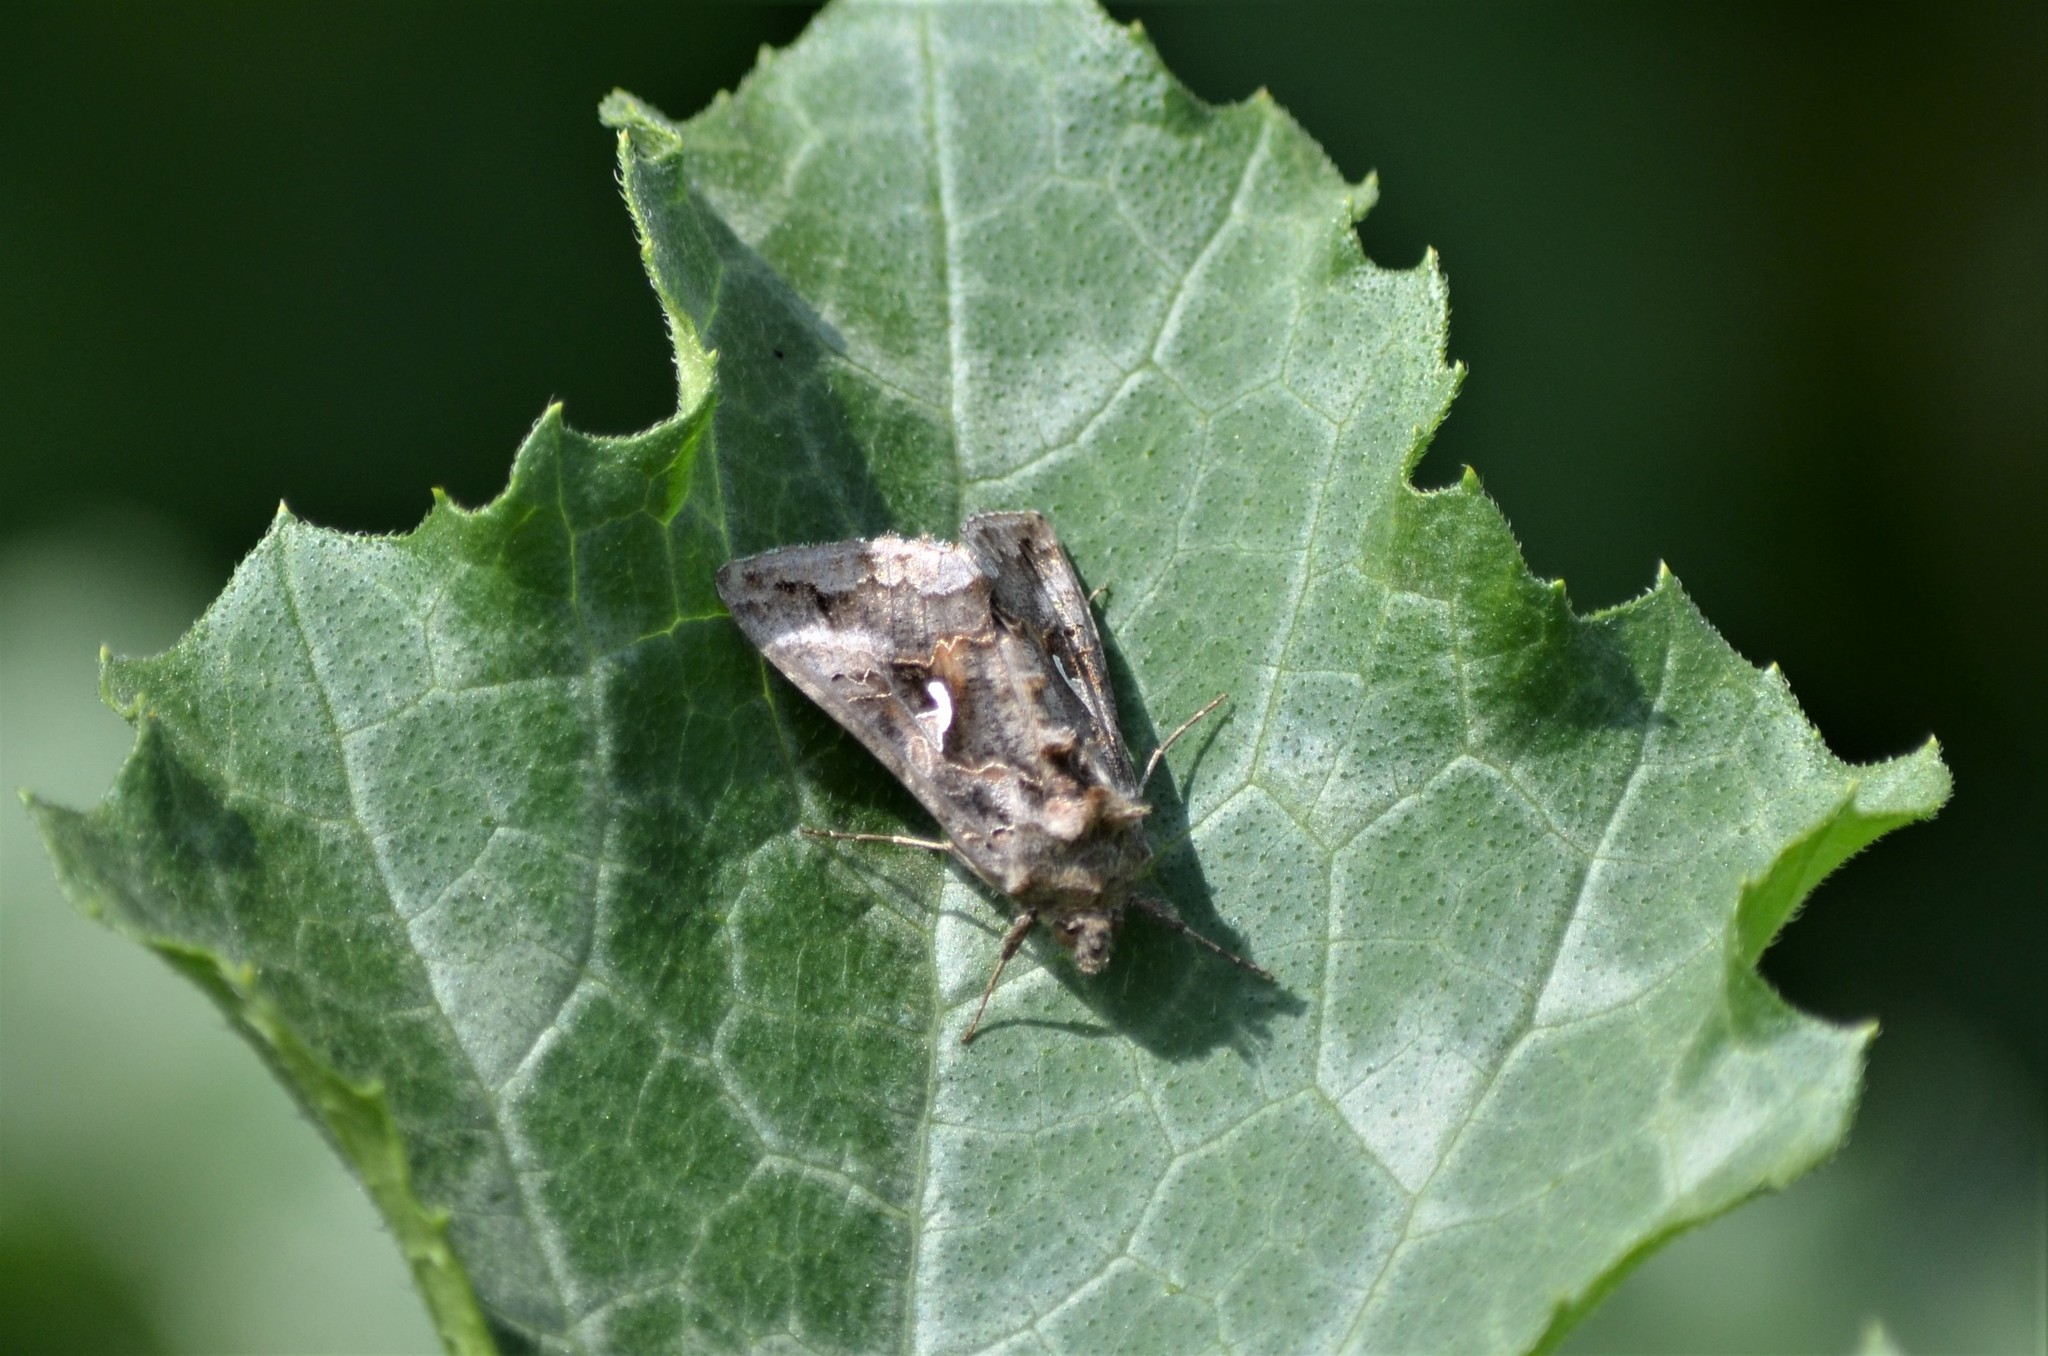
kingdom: Animalia
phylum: Arthropoda
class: Insecta
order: Lepidoptera
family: Noctuidae
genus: Autographa
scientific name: Autographa gamma
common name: Silver y
